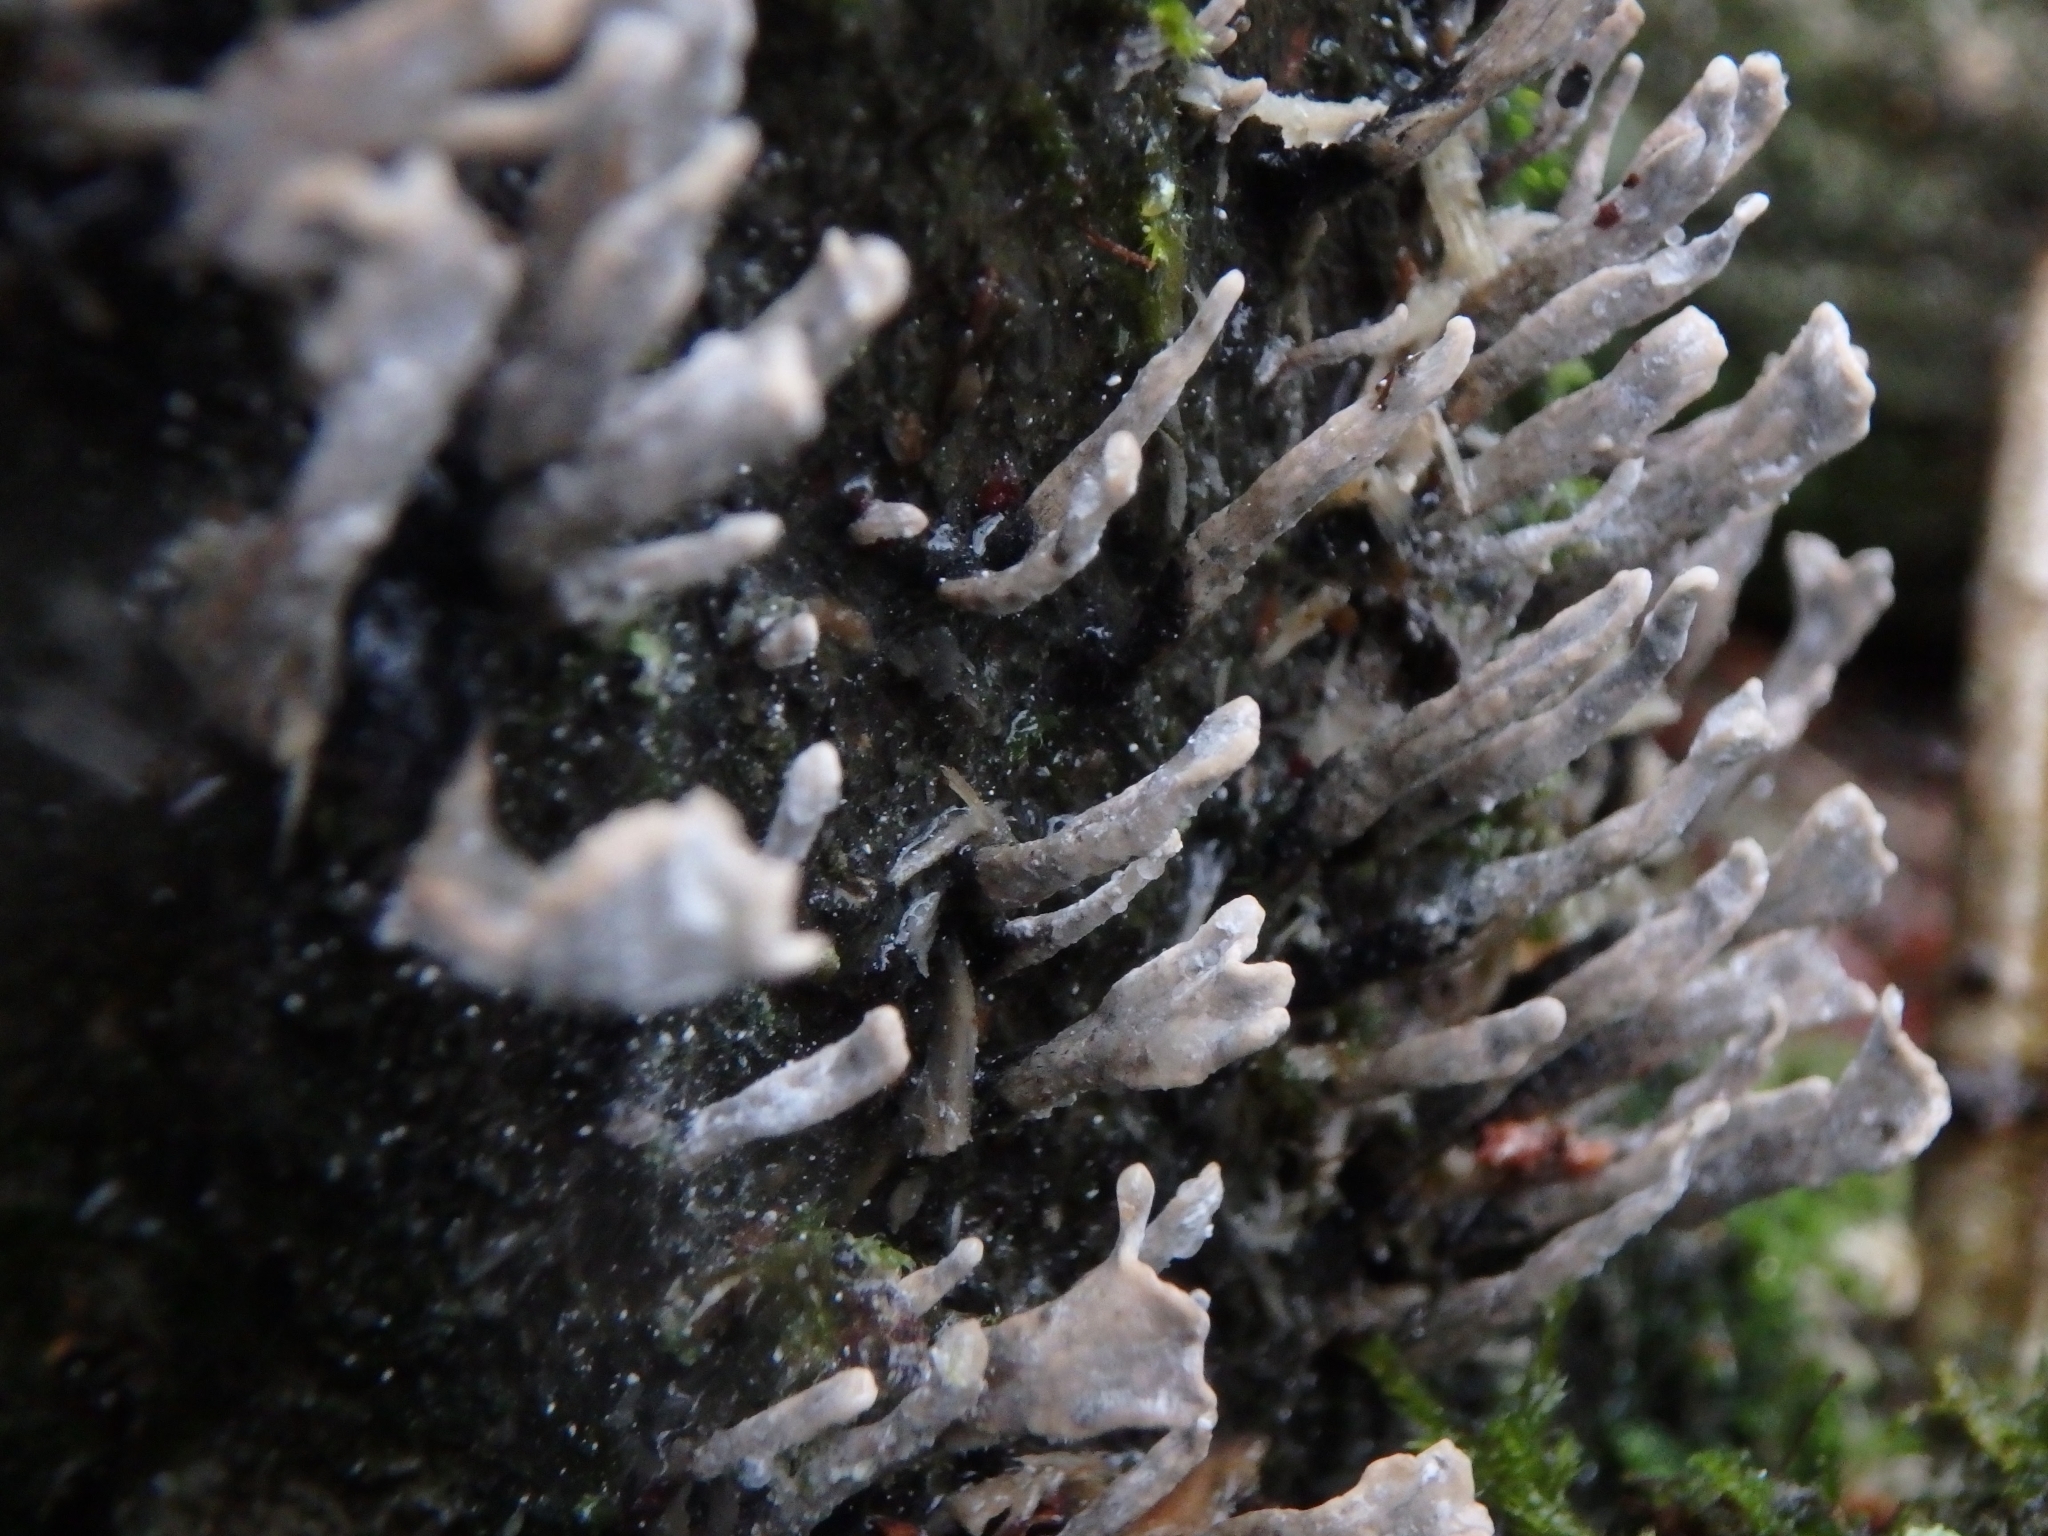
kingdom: Fungi
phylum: Ascomycota
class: Sordariomycetes
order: Xylariales
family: Xylariaceae
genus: Xylaria
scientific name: Xylaria hypoxylon
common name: Candle-snuff fungus
